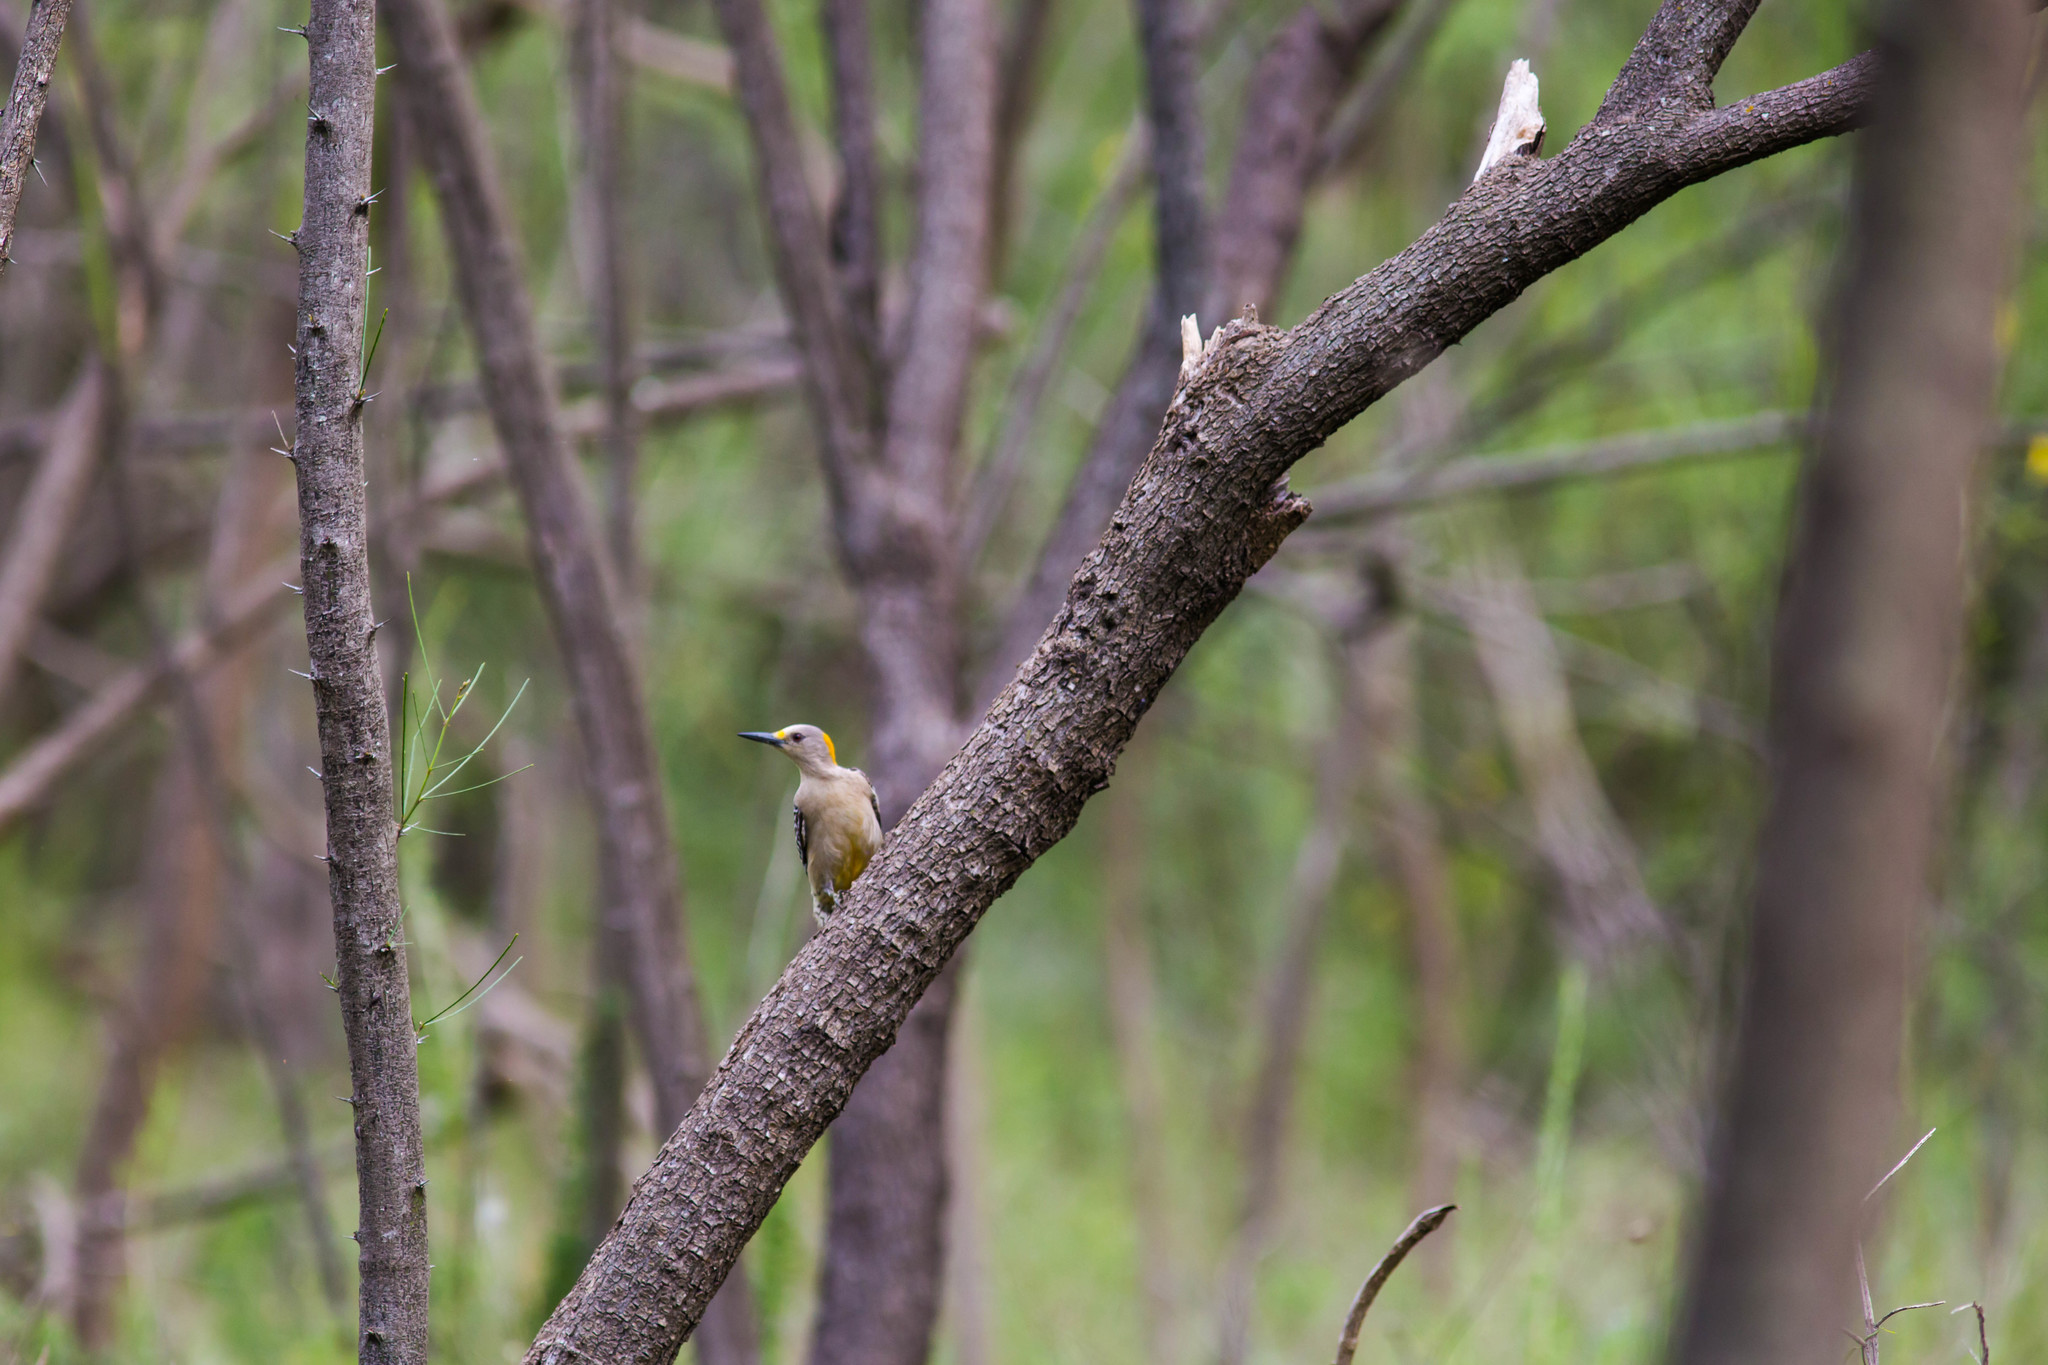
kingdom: Animalia
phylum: Chordata
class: Aves
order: Piciformes
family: Picidae
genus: Melanerpes
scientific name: Melanerpes aurifrons
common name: Golden-fronted woodpecker
